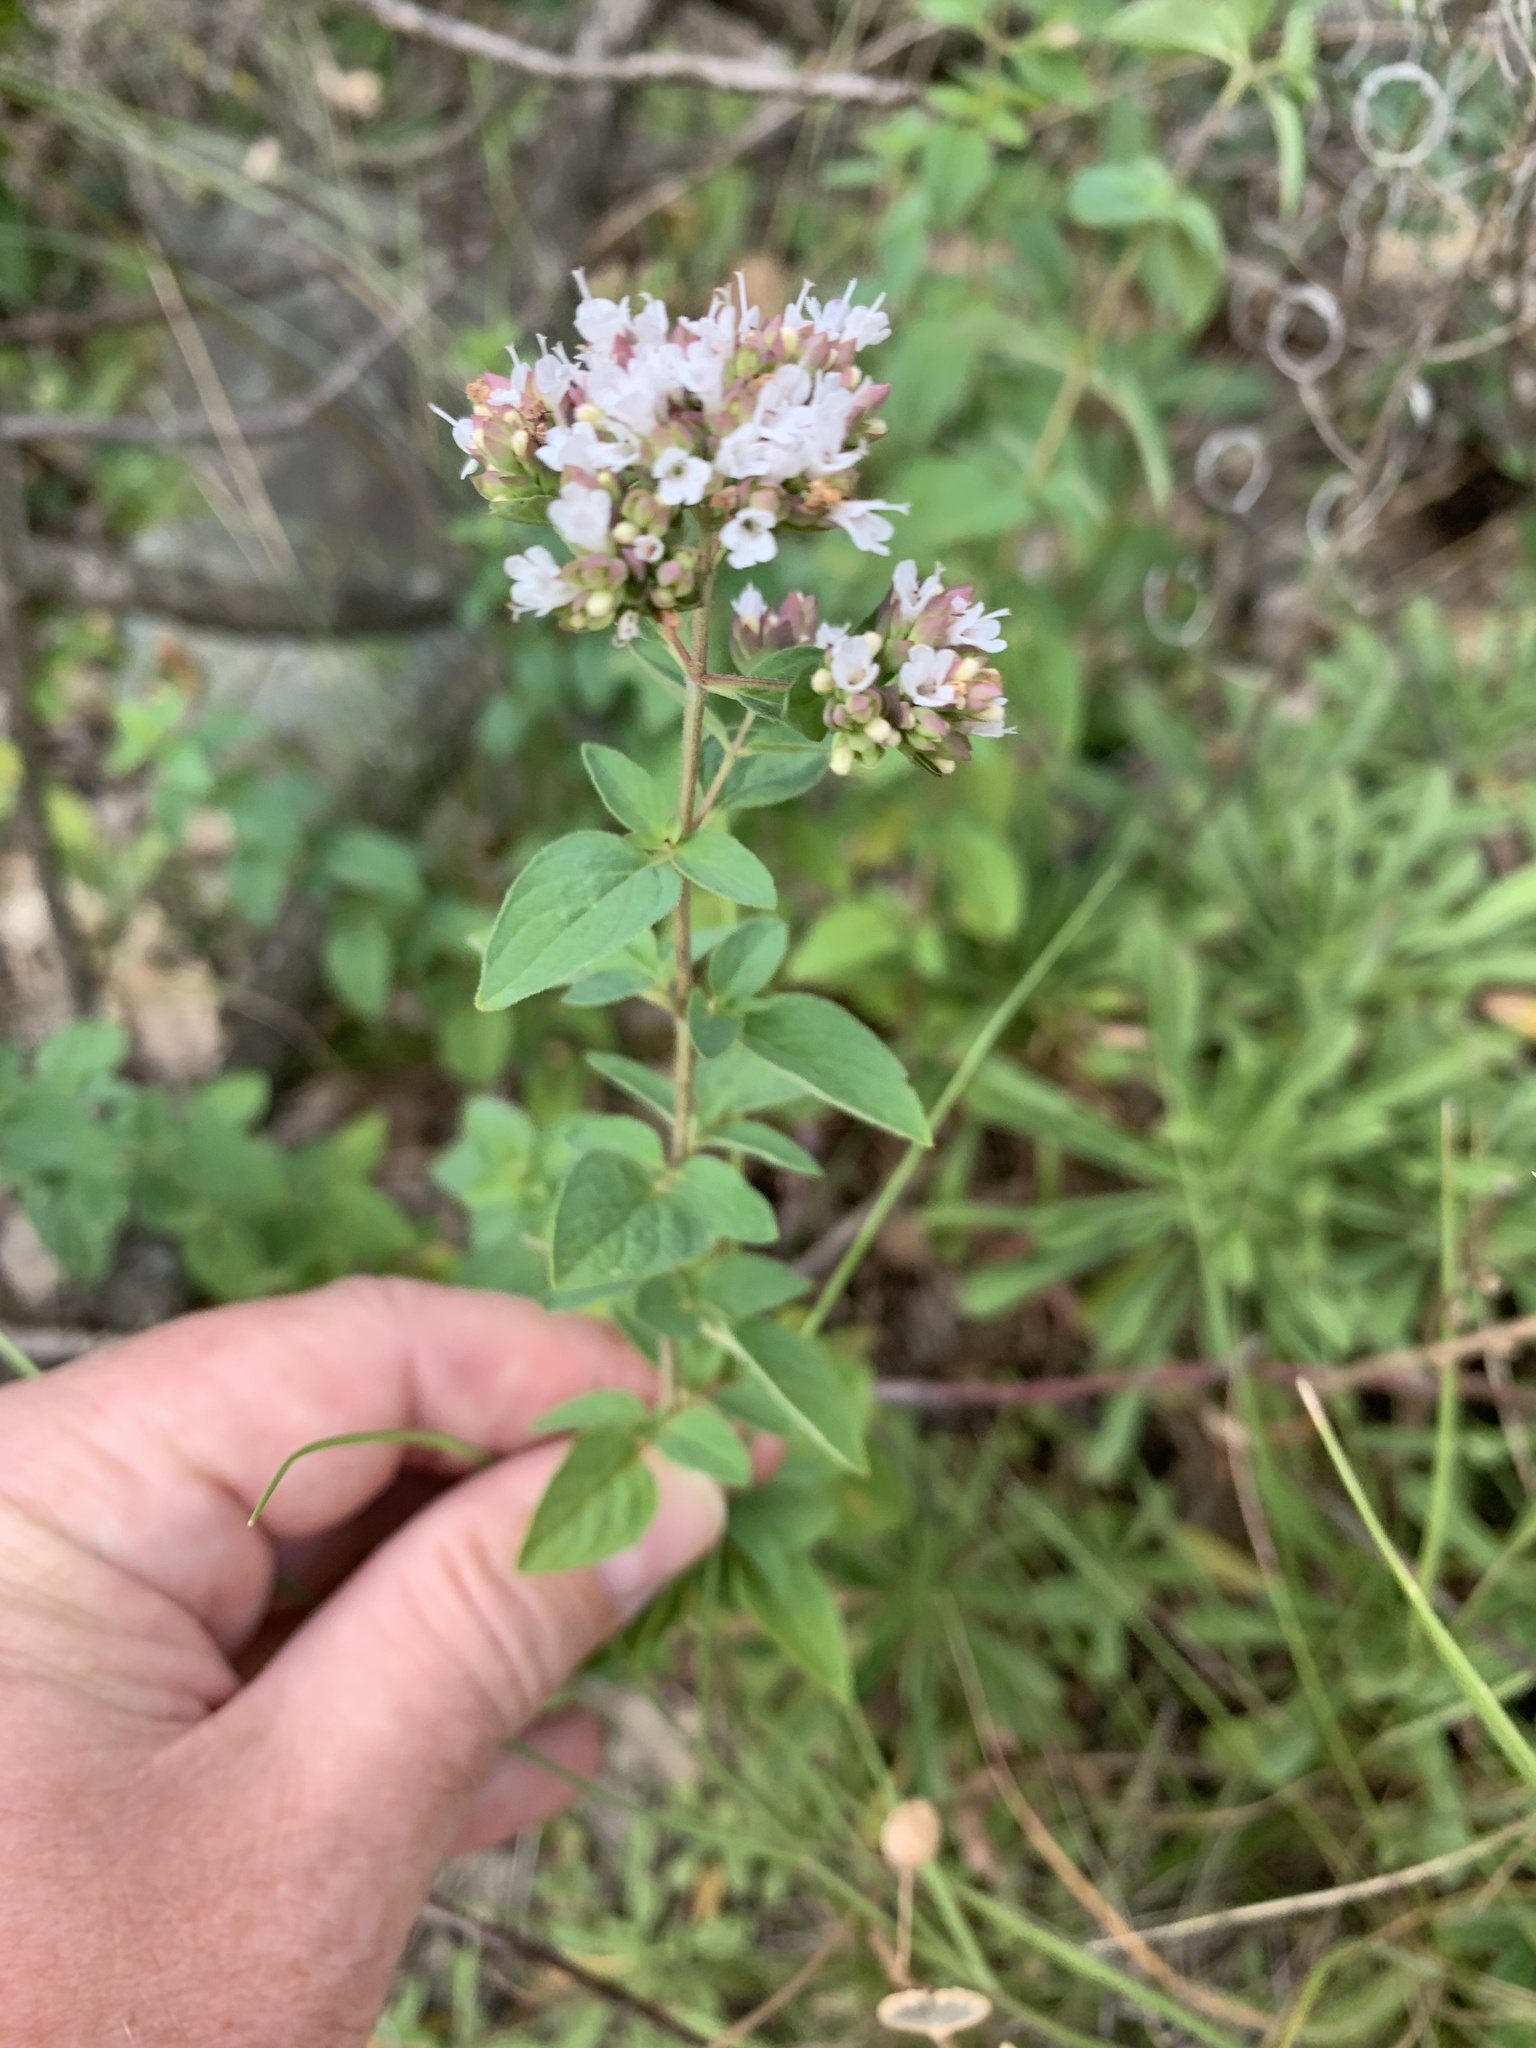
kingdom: Plantae
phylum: Tracheophyta
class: Magnoliopsida
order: Lamiales
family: Lamiaceae
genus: Origanum
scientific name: Origanum vulgare
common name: Wild marjoram
